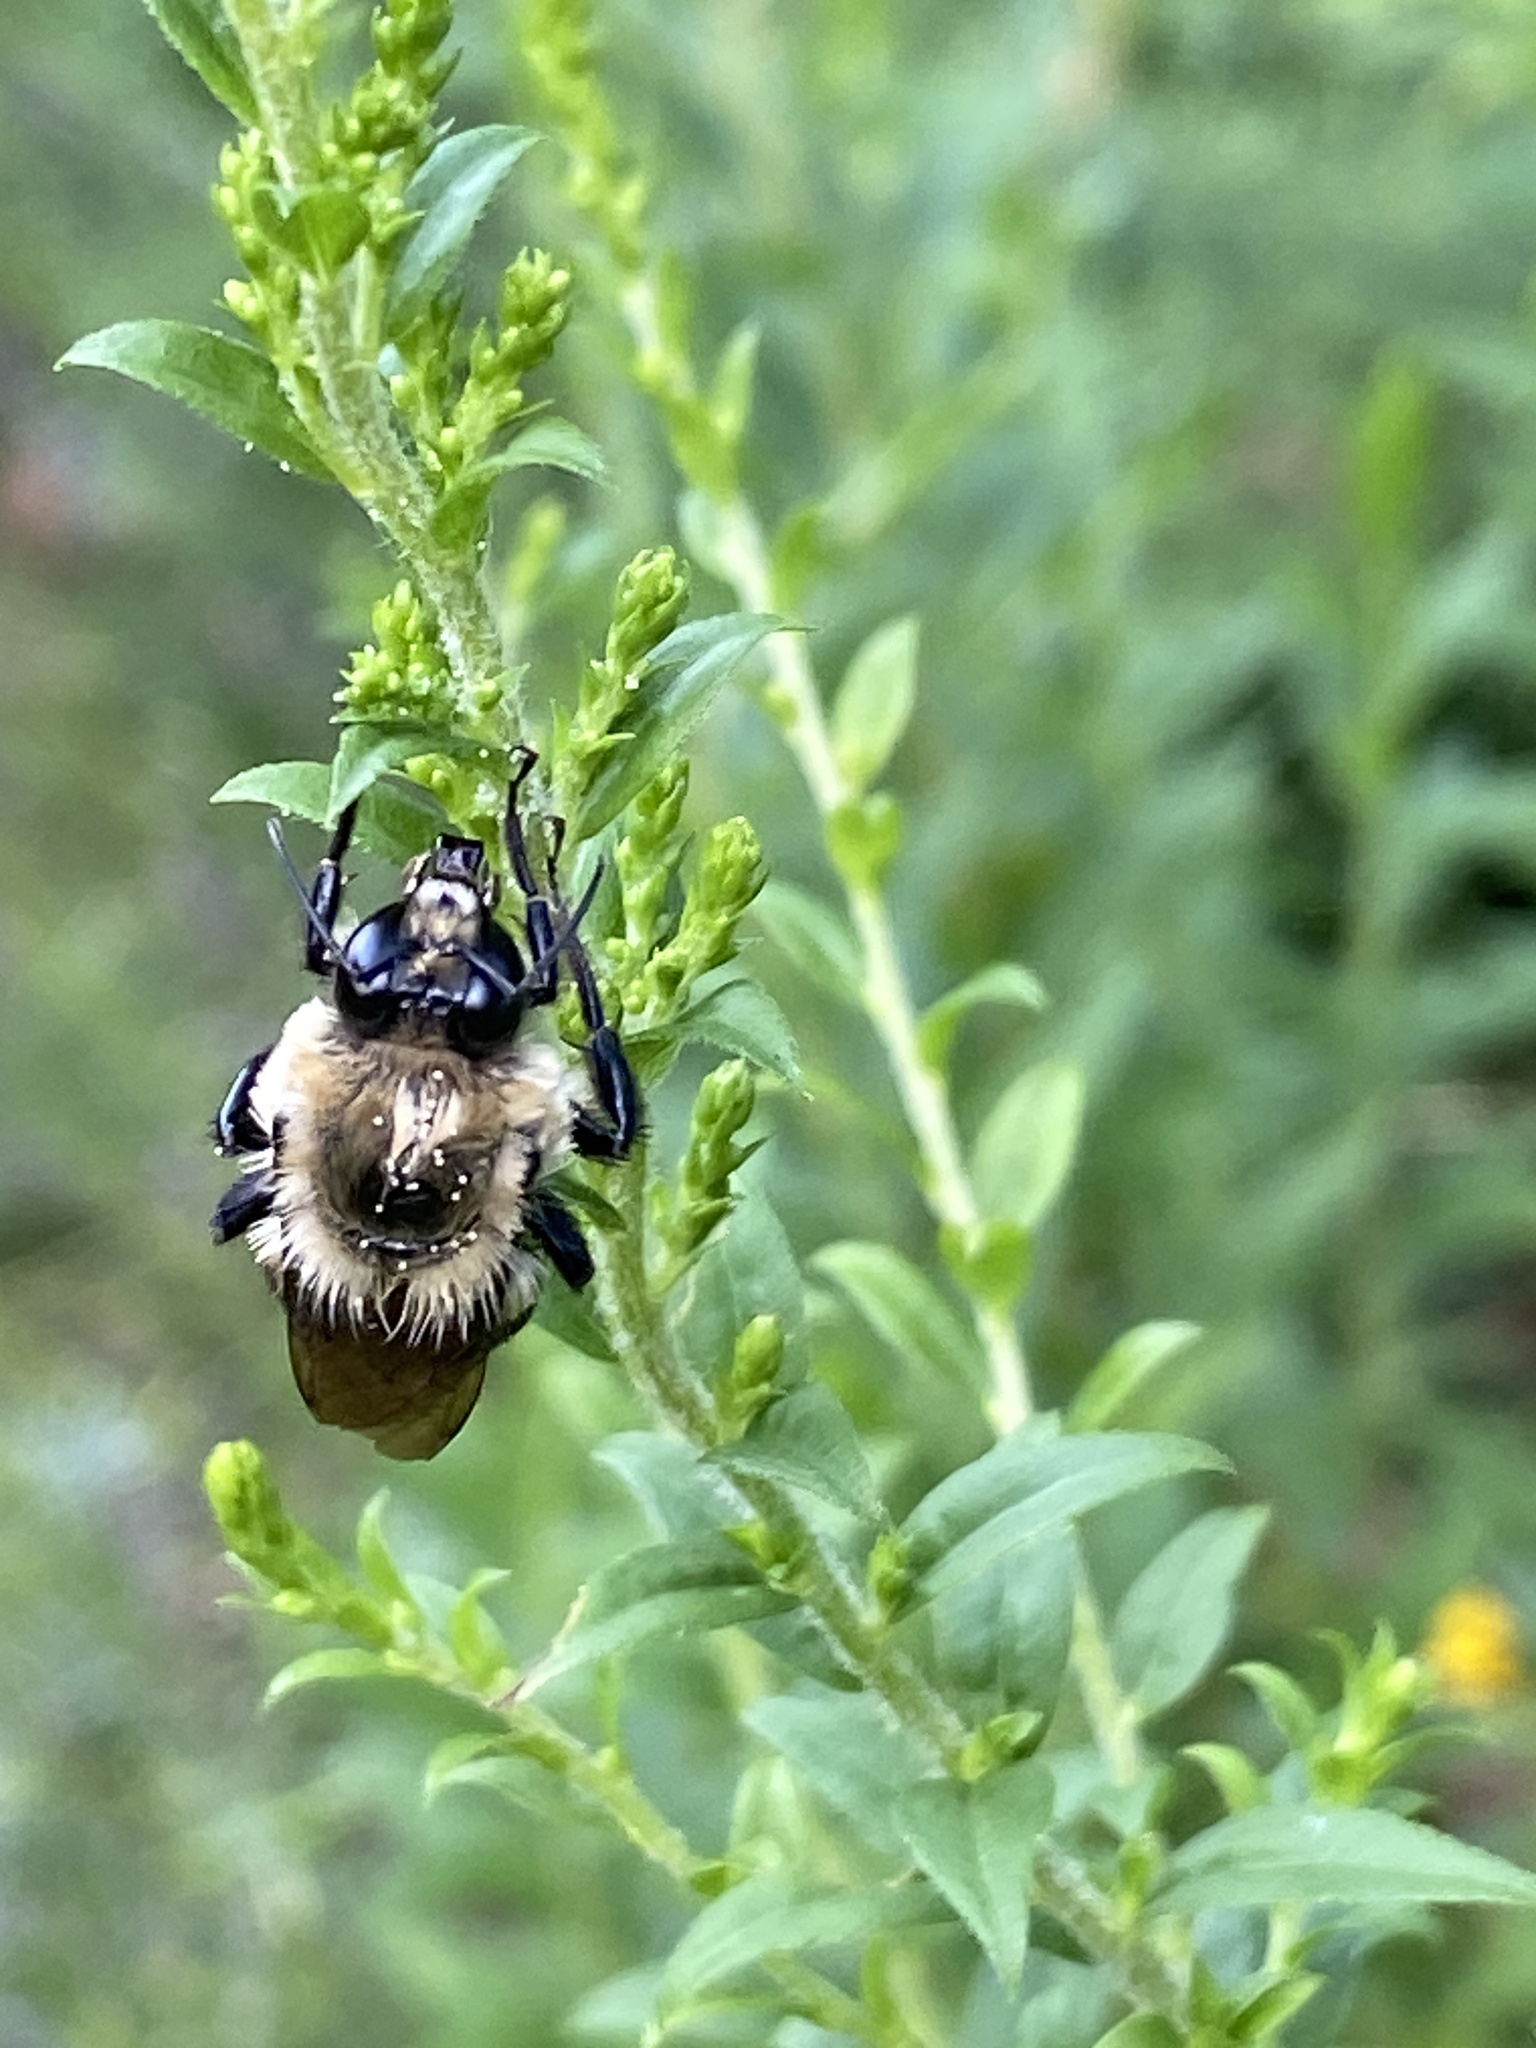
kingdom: Animalia
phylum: Arthropoda
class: Insecta
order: Hymenoptera
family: Apidae
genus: Bombus
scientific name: Bombus griseocollis
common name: Brown-belted bumble bee
